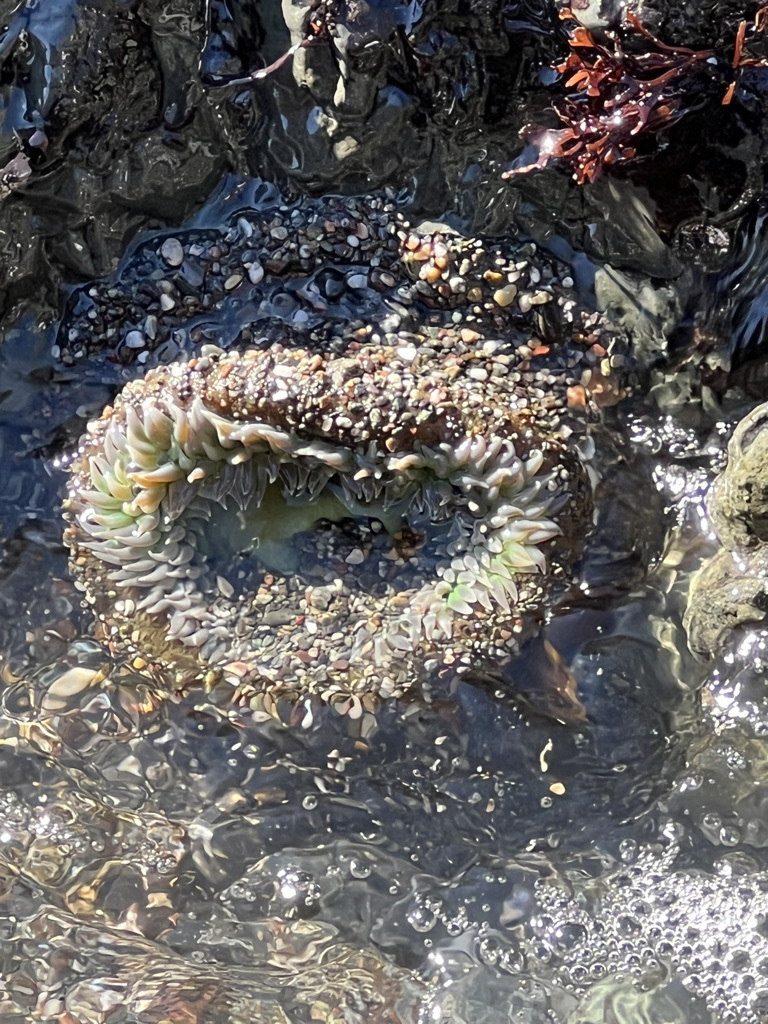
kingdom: Animalia
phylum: Cnidaria
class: Anthozoa
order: Actiniaria
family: Actiniidae
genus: Anthopleura
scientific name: Anthopleura xanthogrammica
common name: Giant green anemone
